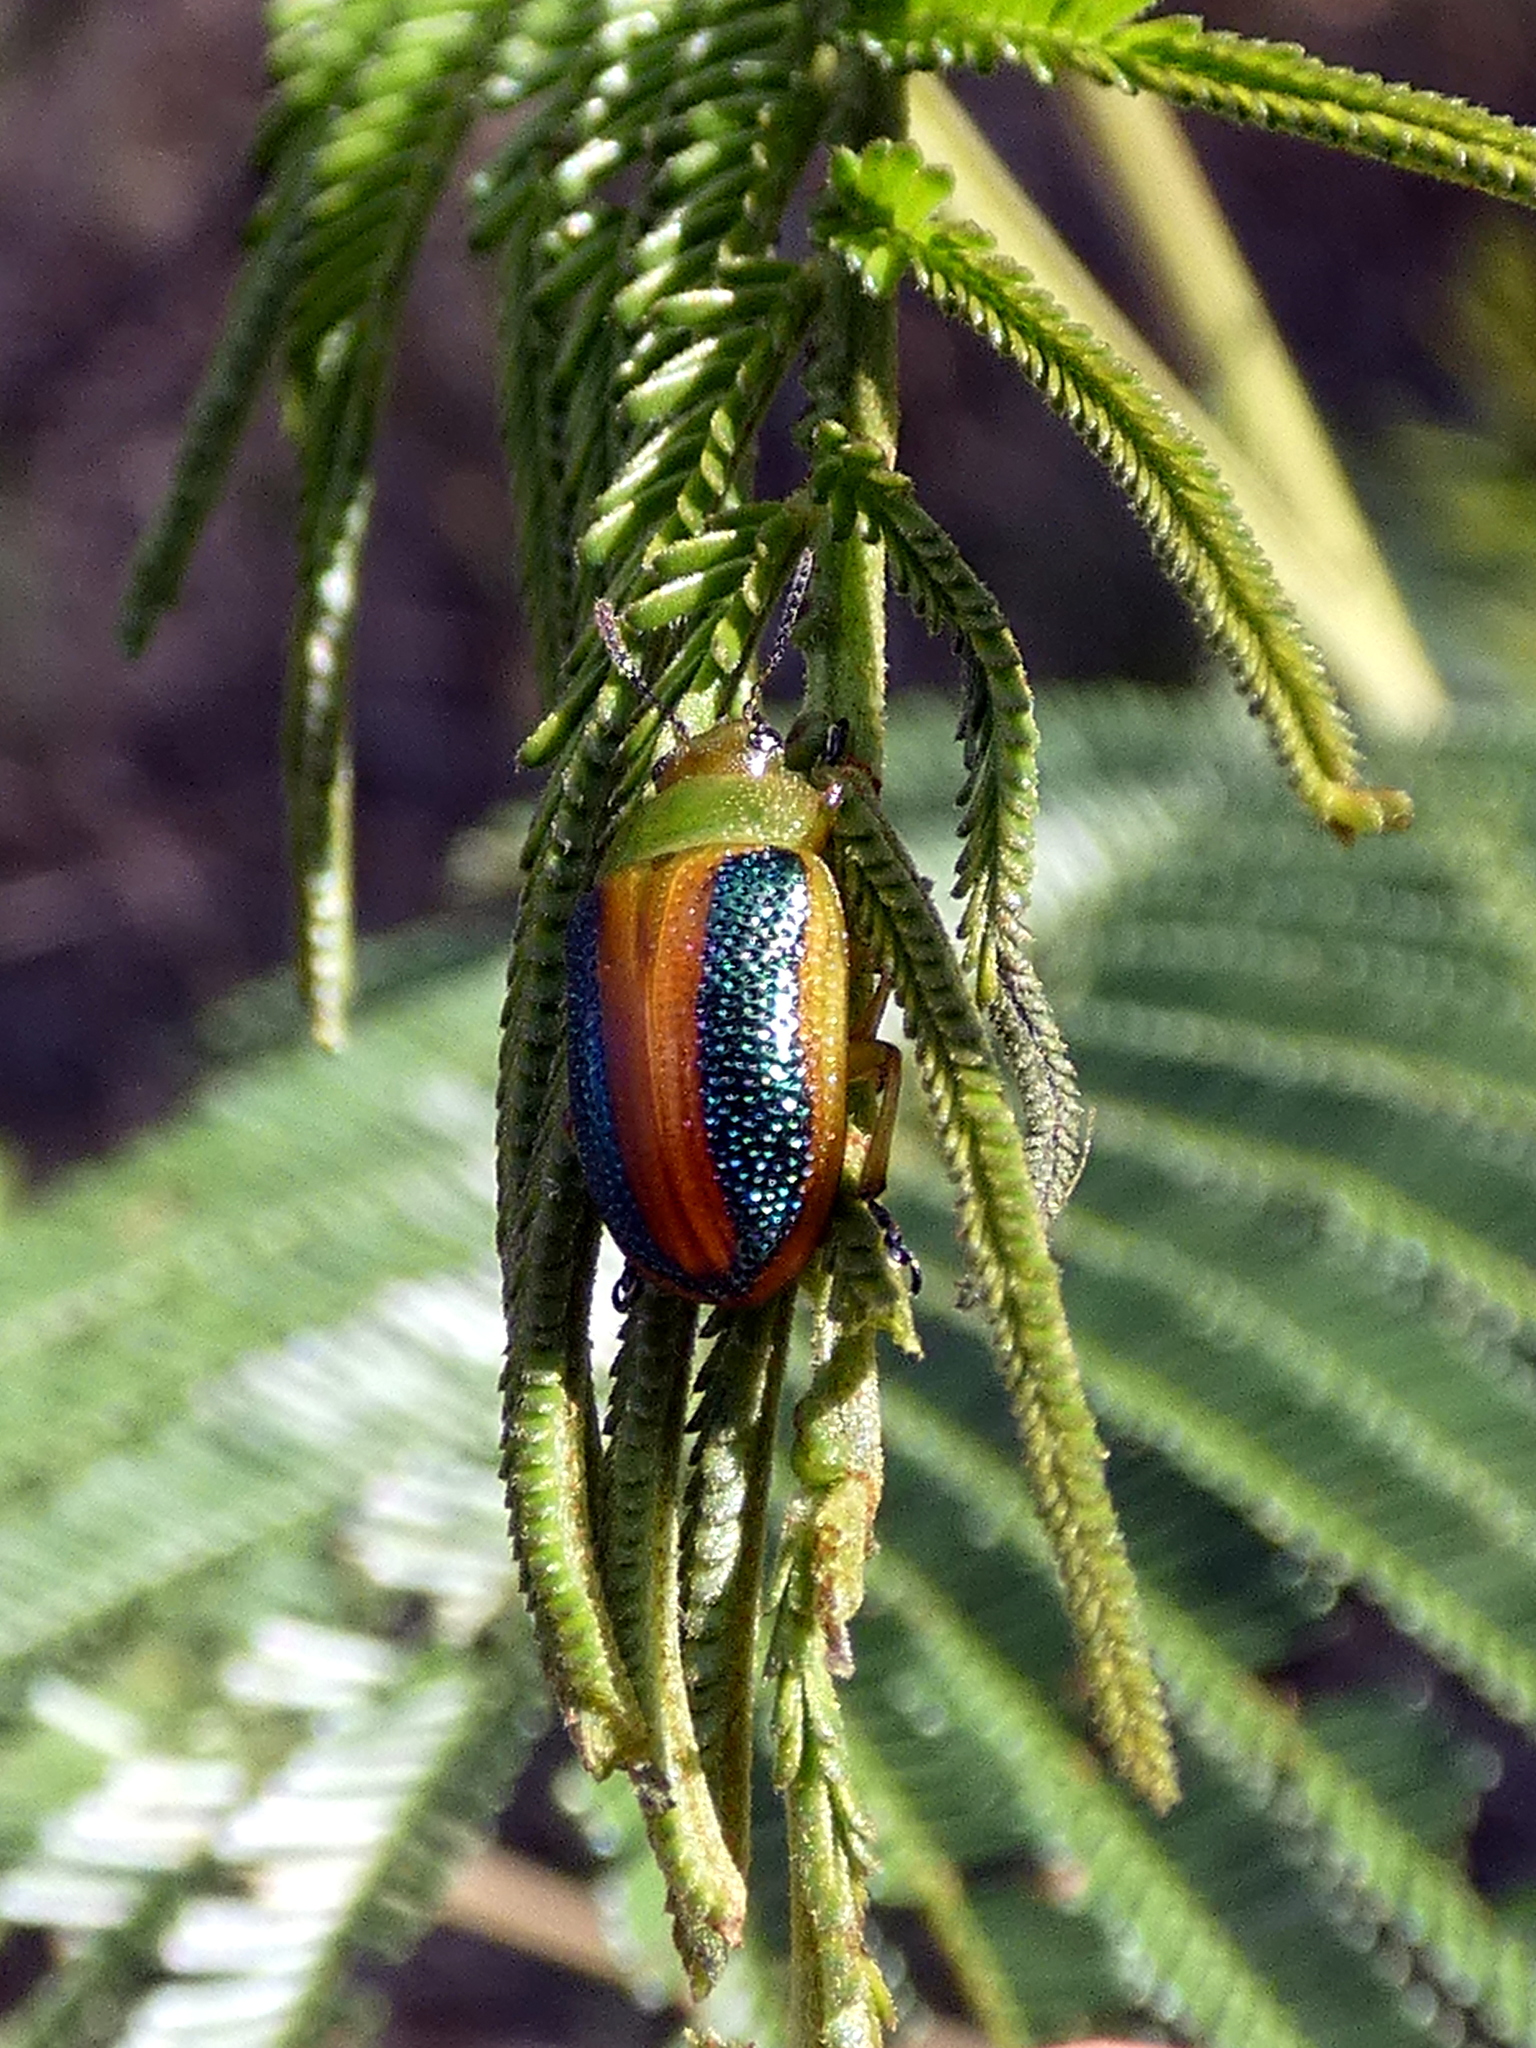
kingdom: Animalia
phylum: Arthropoda
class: Insecta
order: Coleoptera
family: Chrysomelidae
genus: Calomela
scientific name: Calomela
